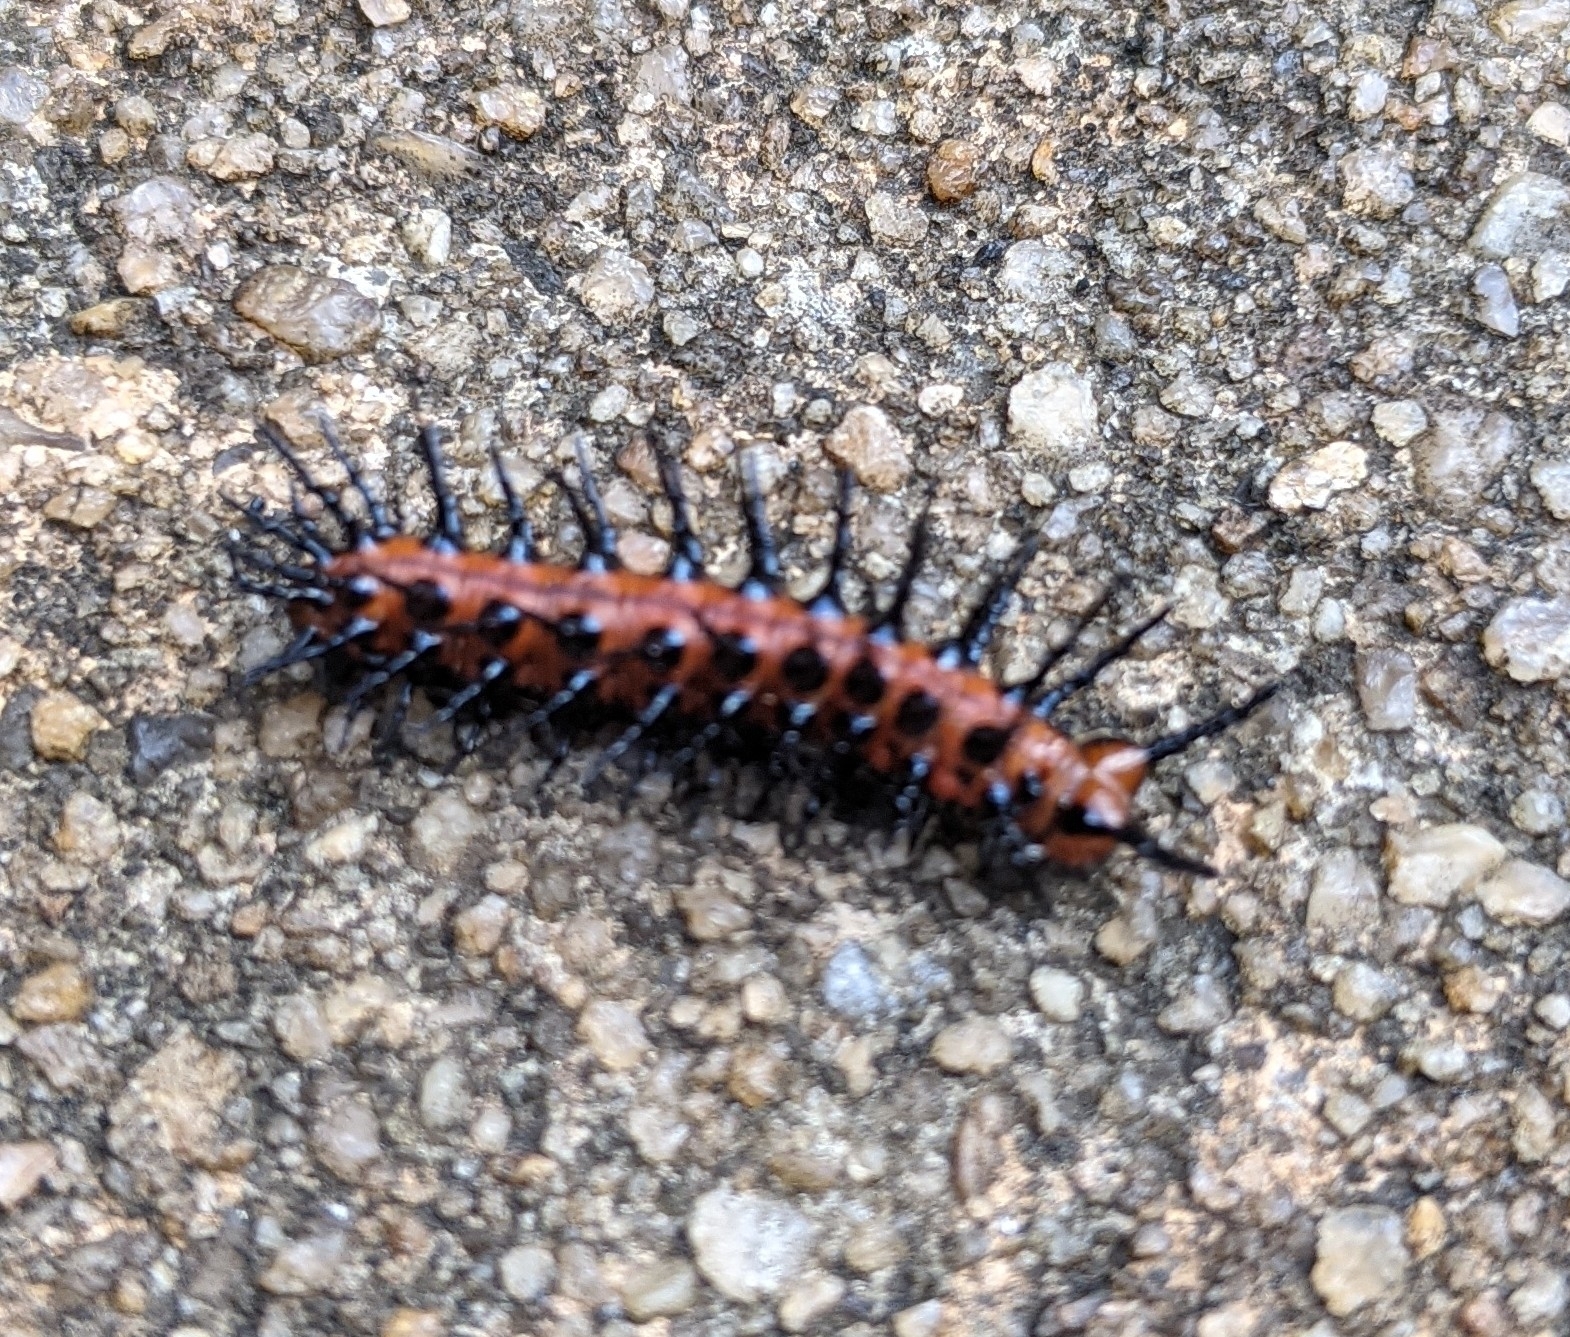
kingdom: Animalia
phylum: Arthropoda
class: Insecta
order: Lepidoptera
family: Nymphalidae
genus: Dione
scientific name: Dione vanillae
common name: Gulf fritillary
